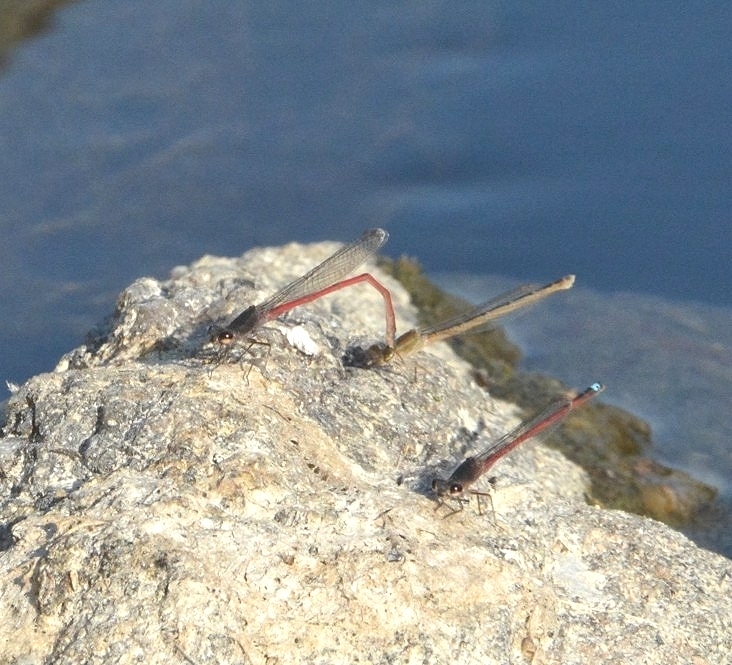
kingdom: Animalia
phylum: Arthropoda
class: Insecta
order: Odonata
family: Coenagrionidae
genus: Oxyagrion
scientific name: Oxyagrion rubidum
